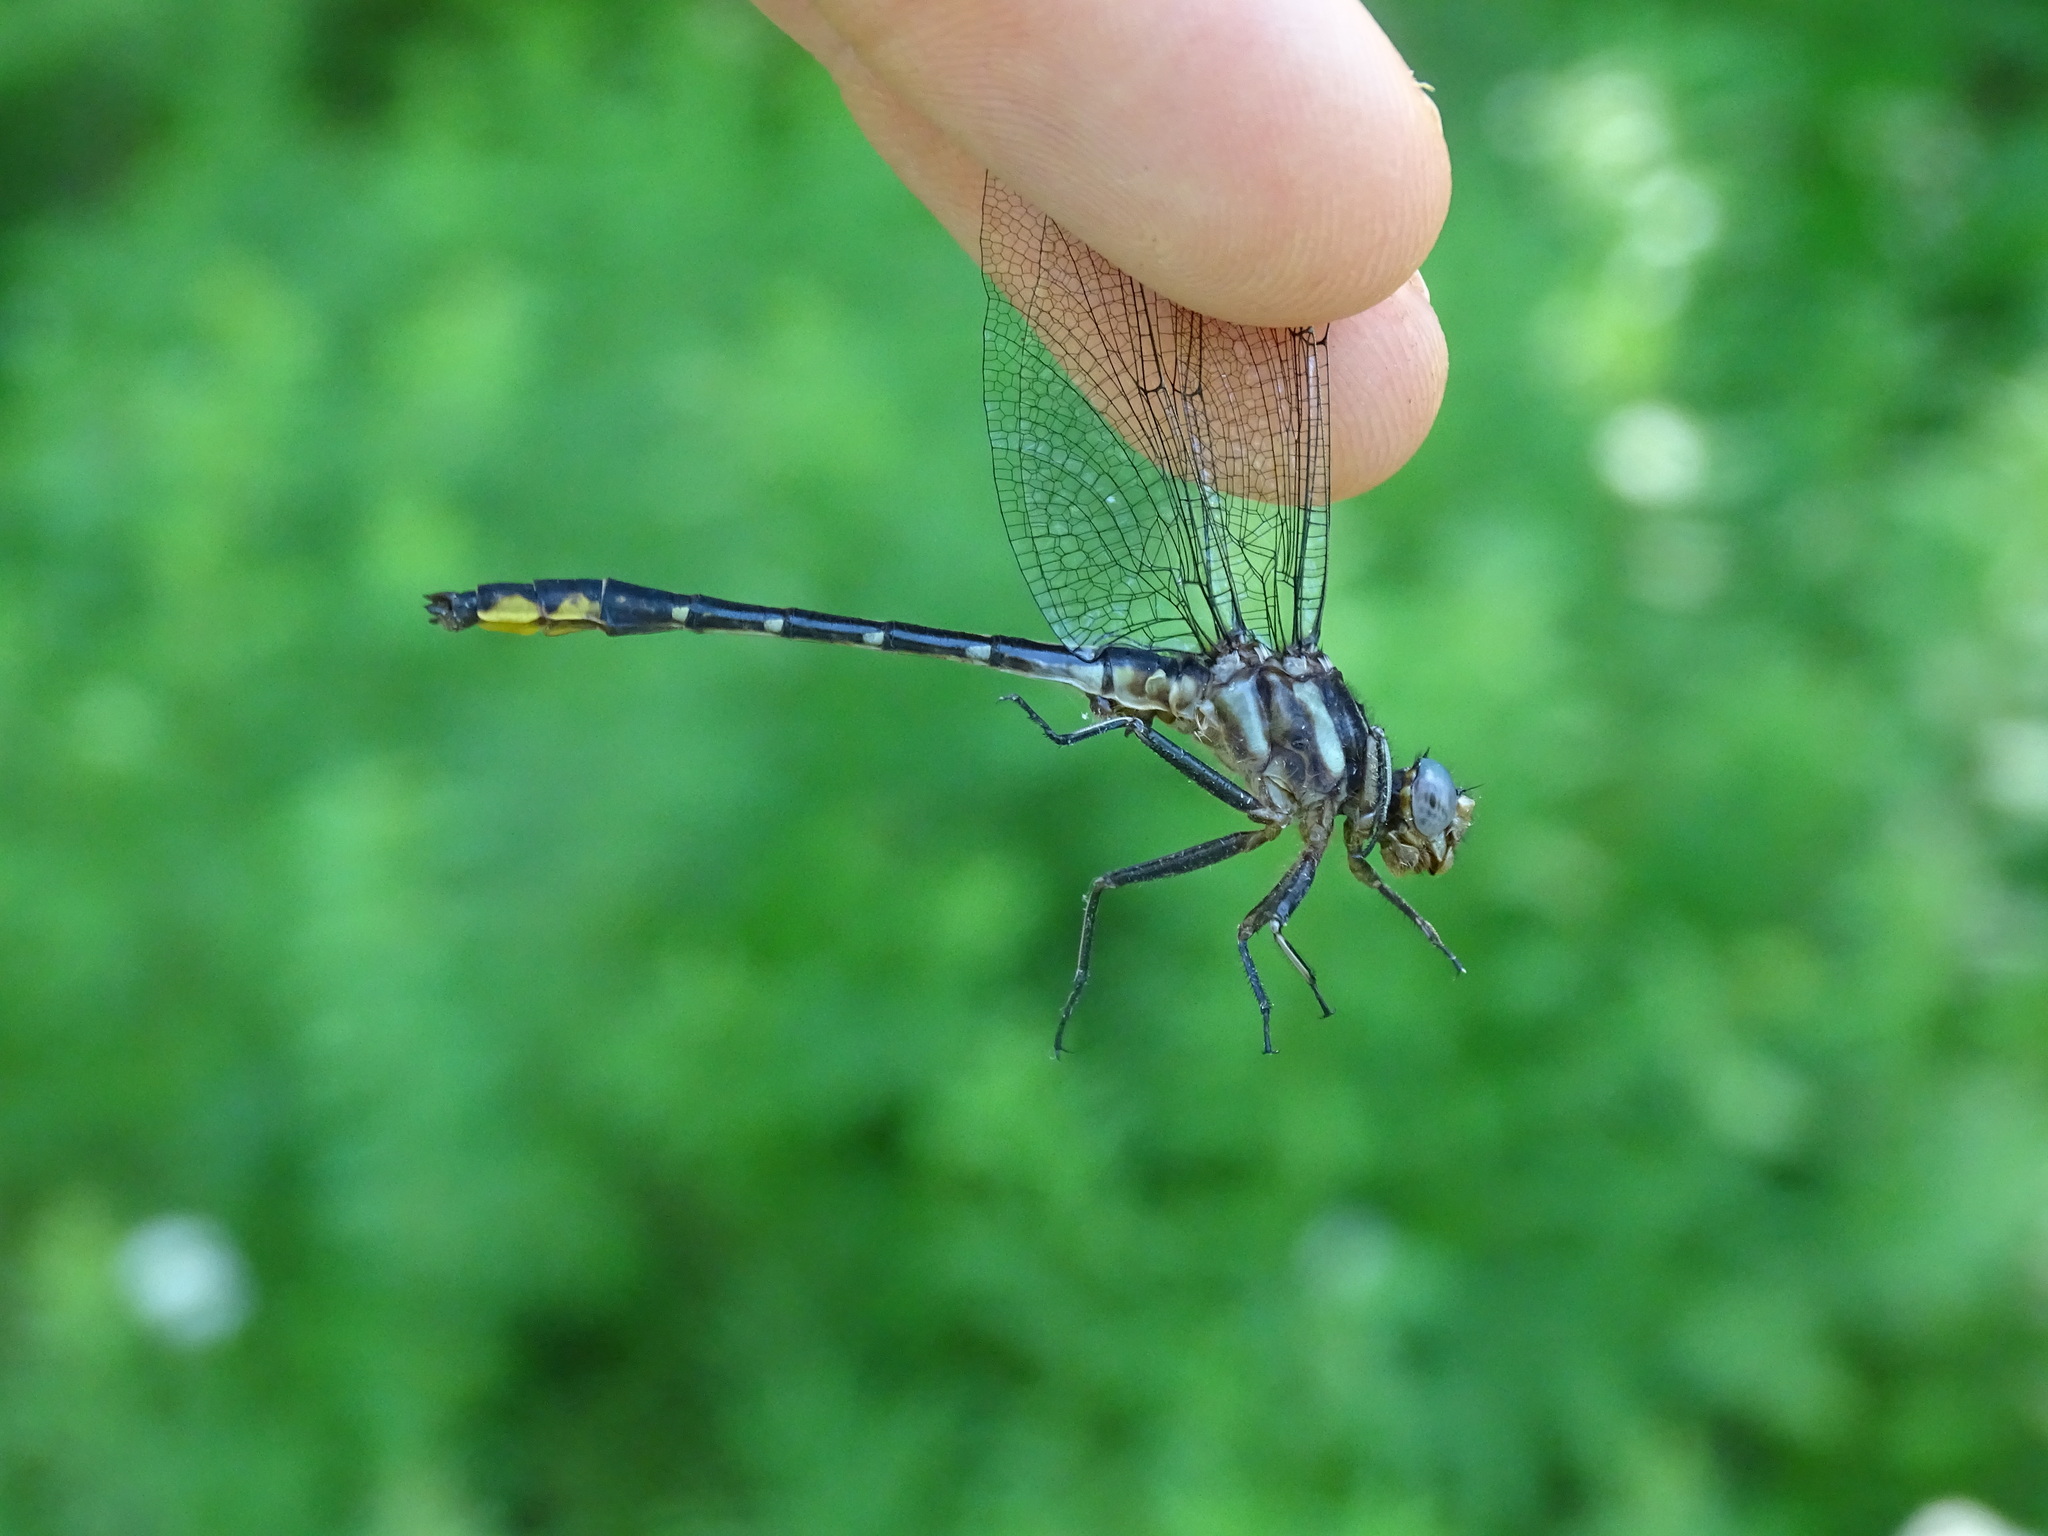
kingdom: Animalia
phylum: Arthropoda
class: Insecta
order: Odonata
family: Gomphidae
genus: Phanogomphus
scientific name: Phanogomphus exilis
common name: Lancet clubtail
